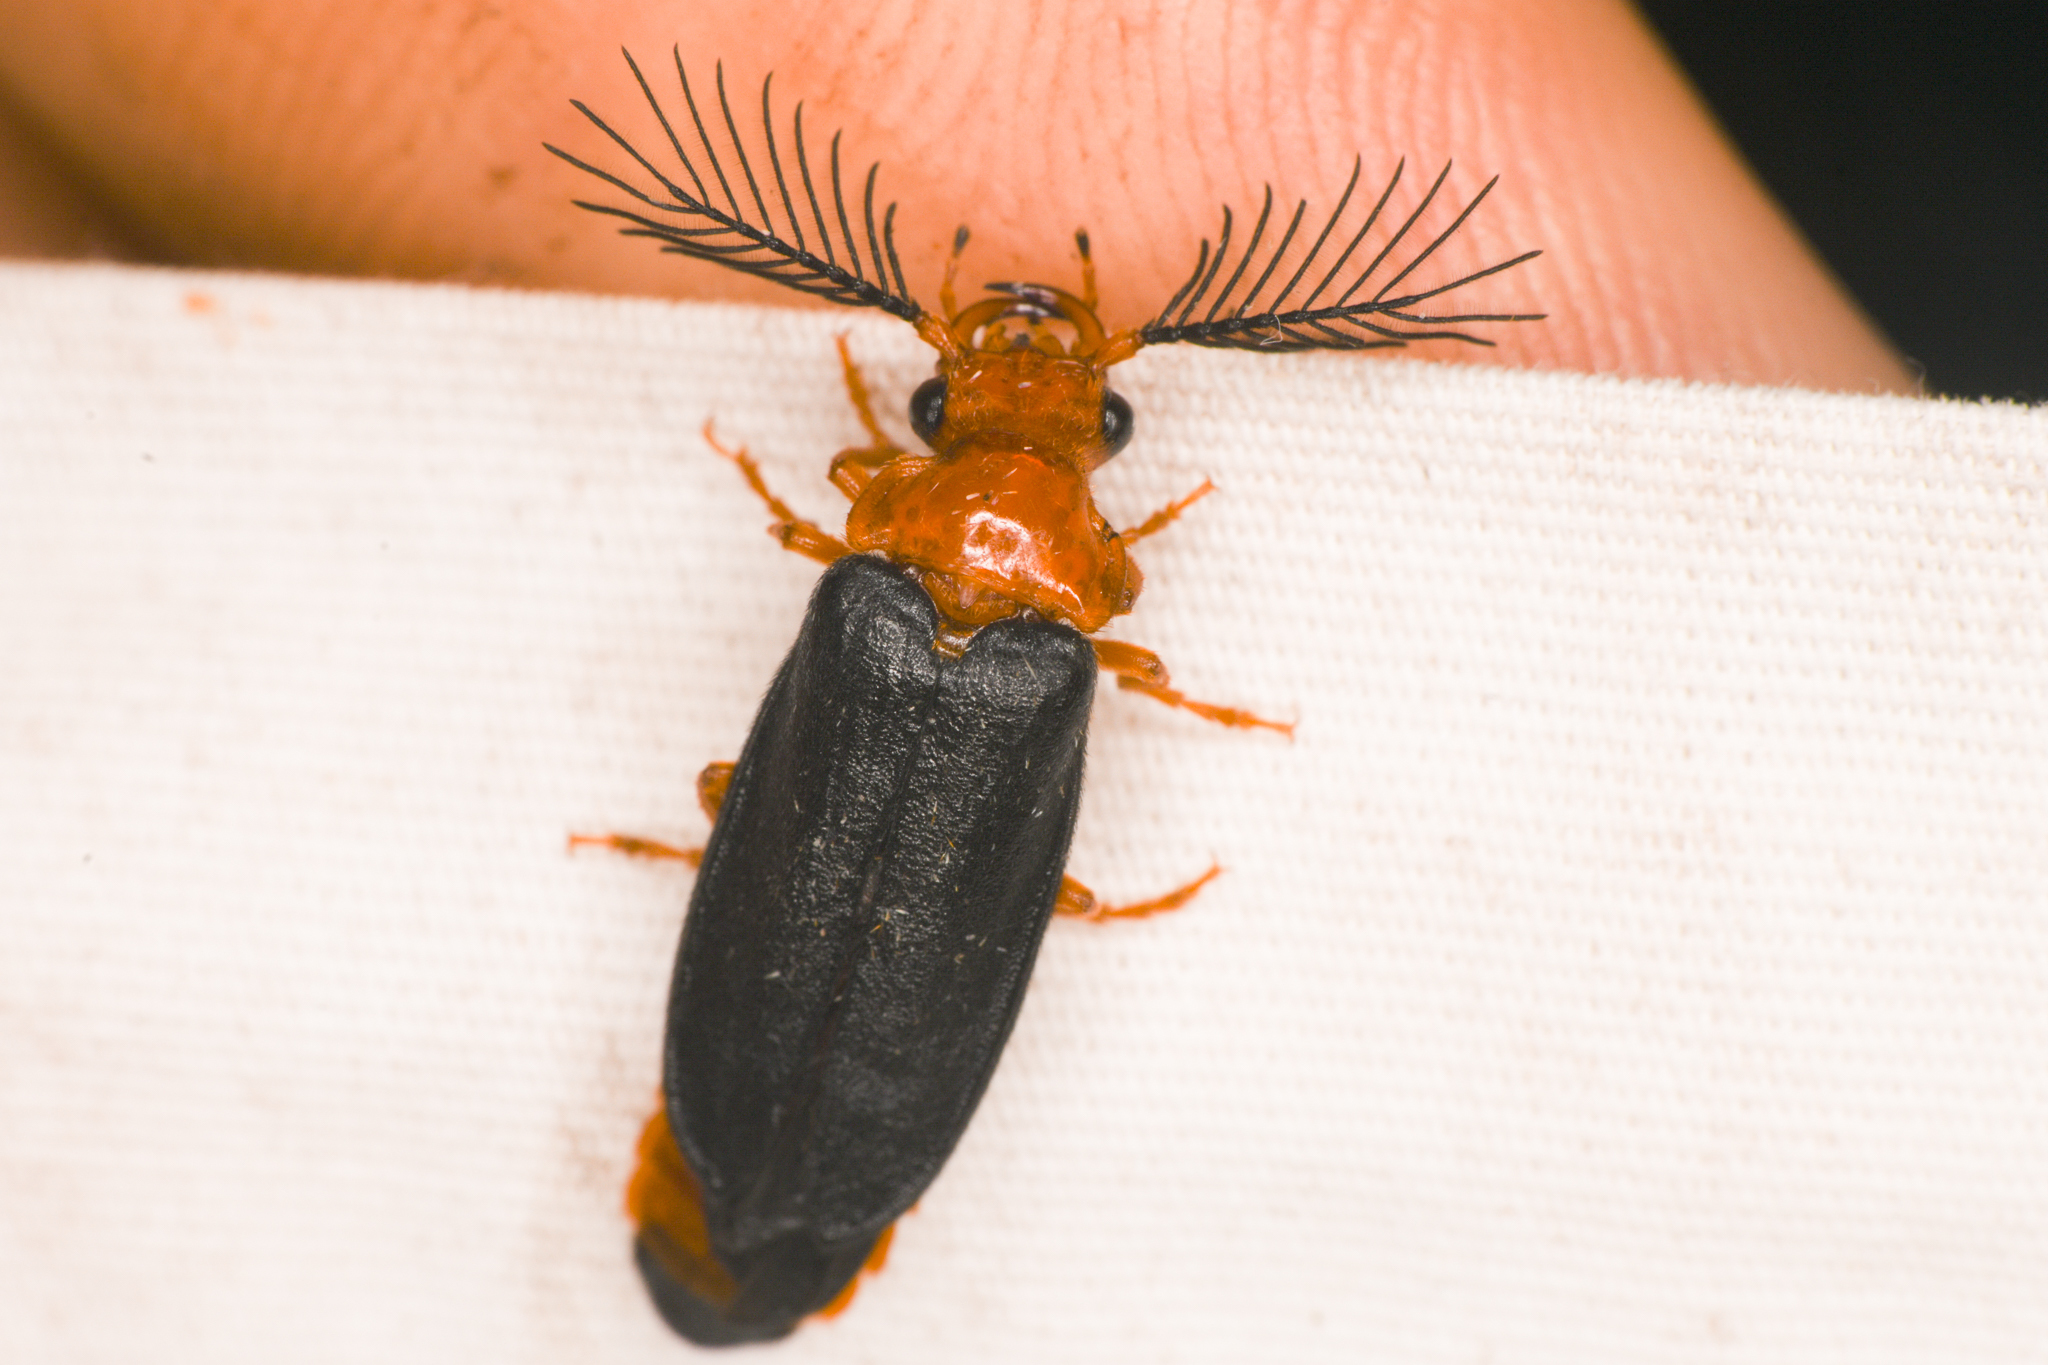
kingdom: Animalia
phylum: Arthropoda
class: Insecta
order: Coleoptera
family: Phengodidae
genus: Zarhipis
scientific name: Zarhipis integripennis
